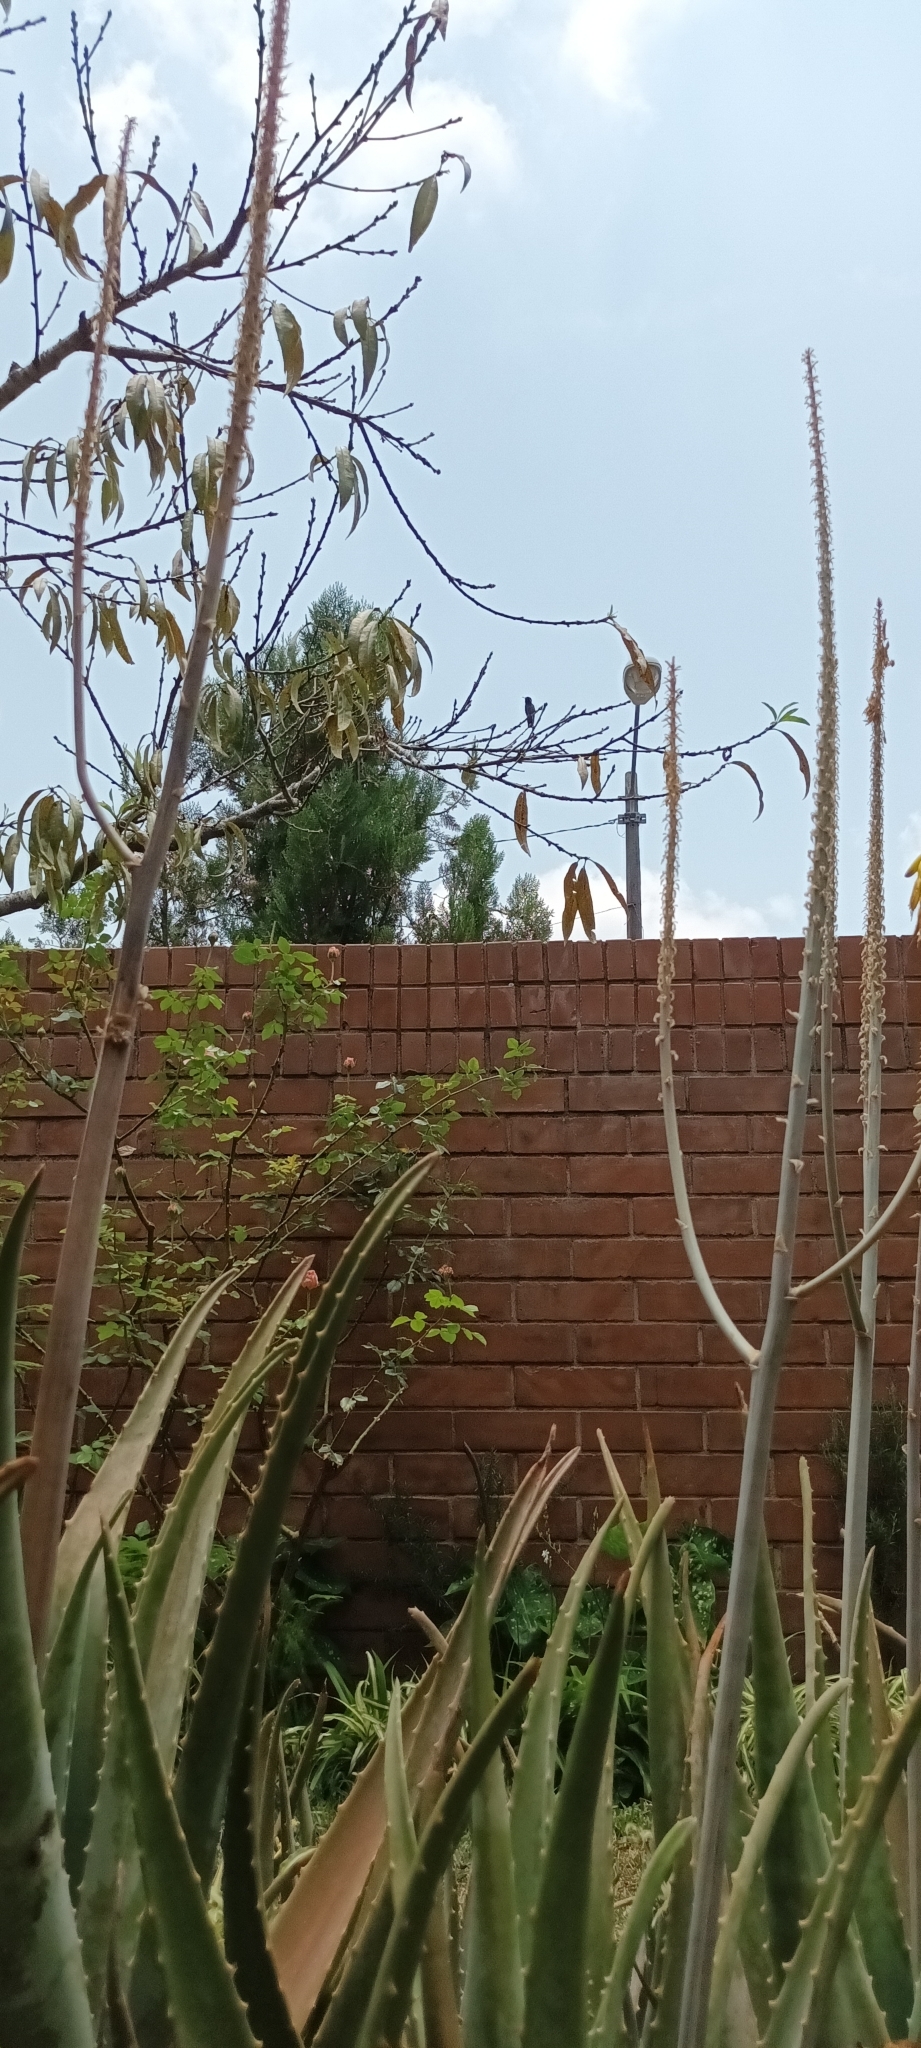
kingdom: Animalia
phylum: Chordata
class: Aves
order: Apodiformes
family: Trochilidae
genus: Basilinna
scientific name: Basilinna leucotis
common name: White-eared hummingbird
